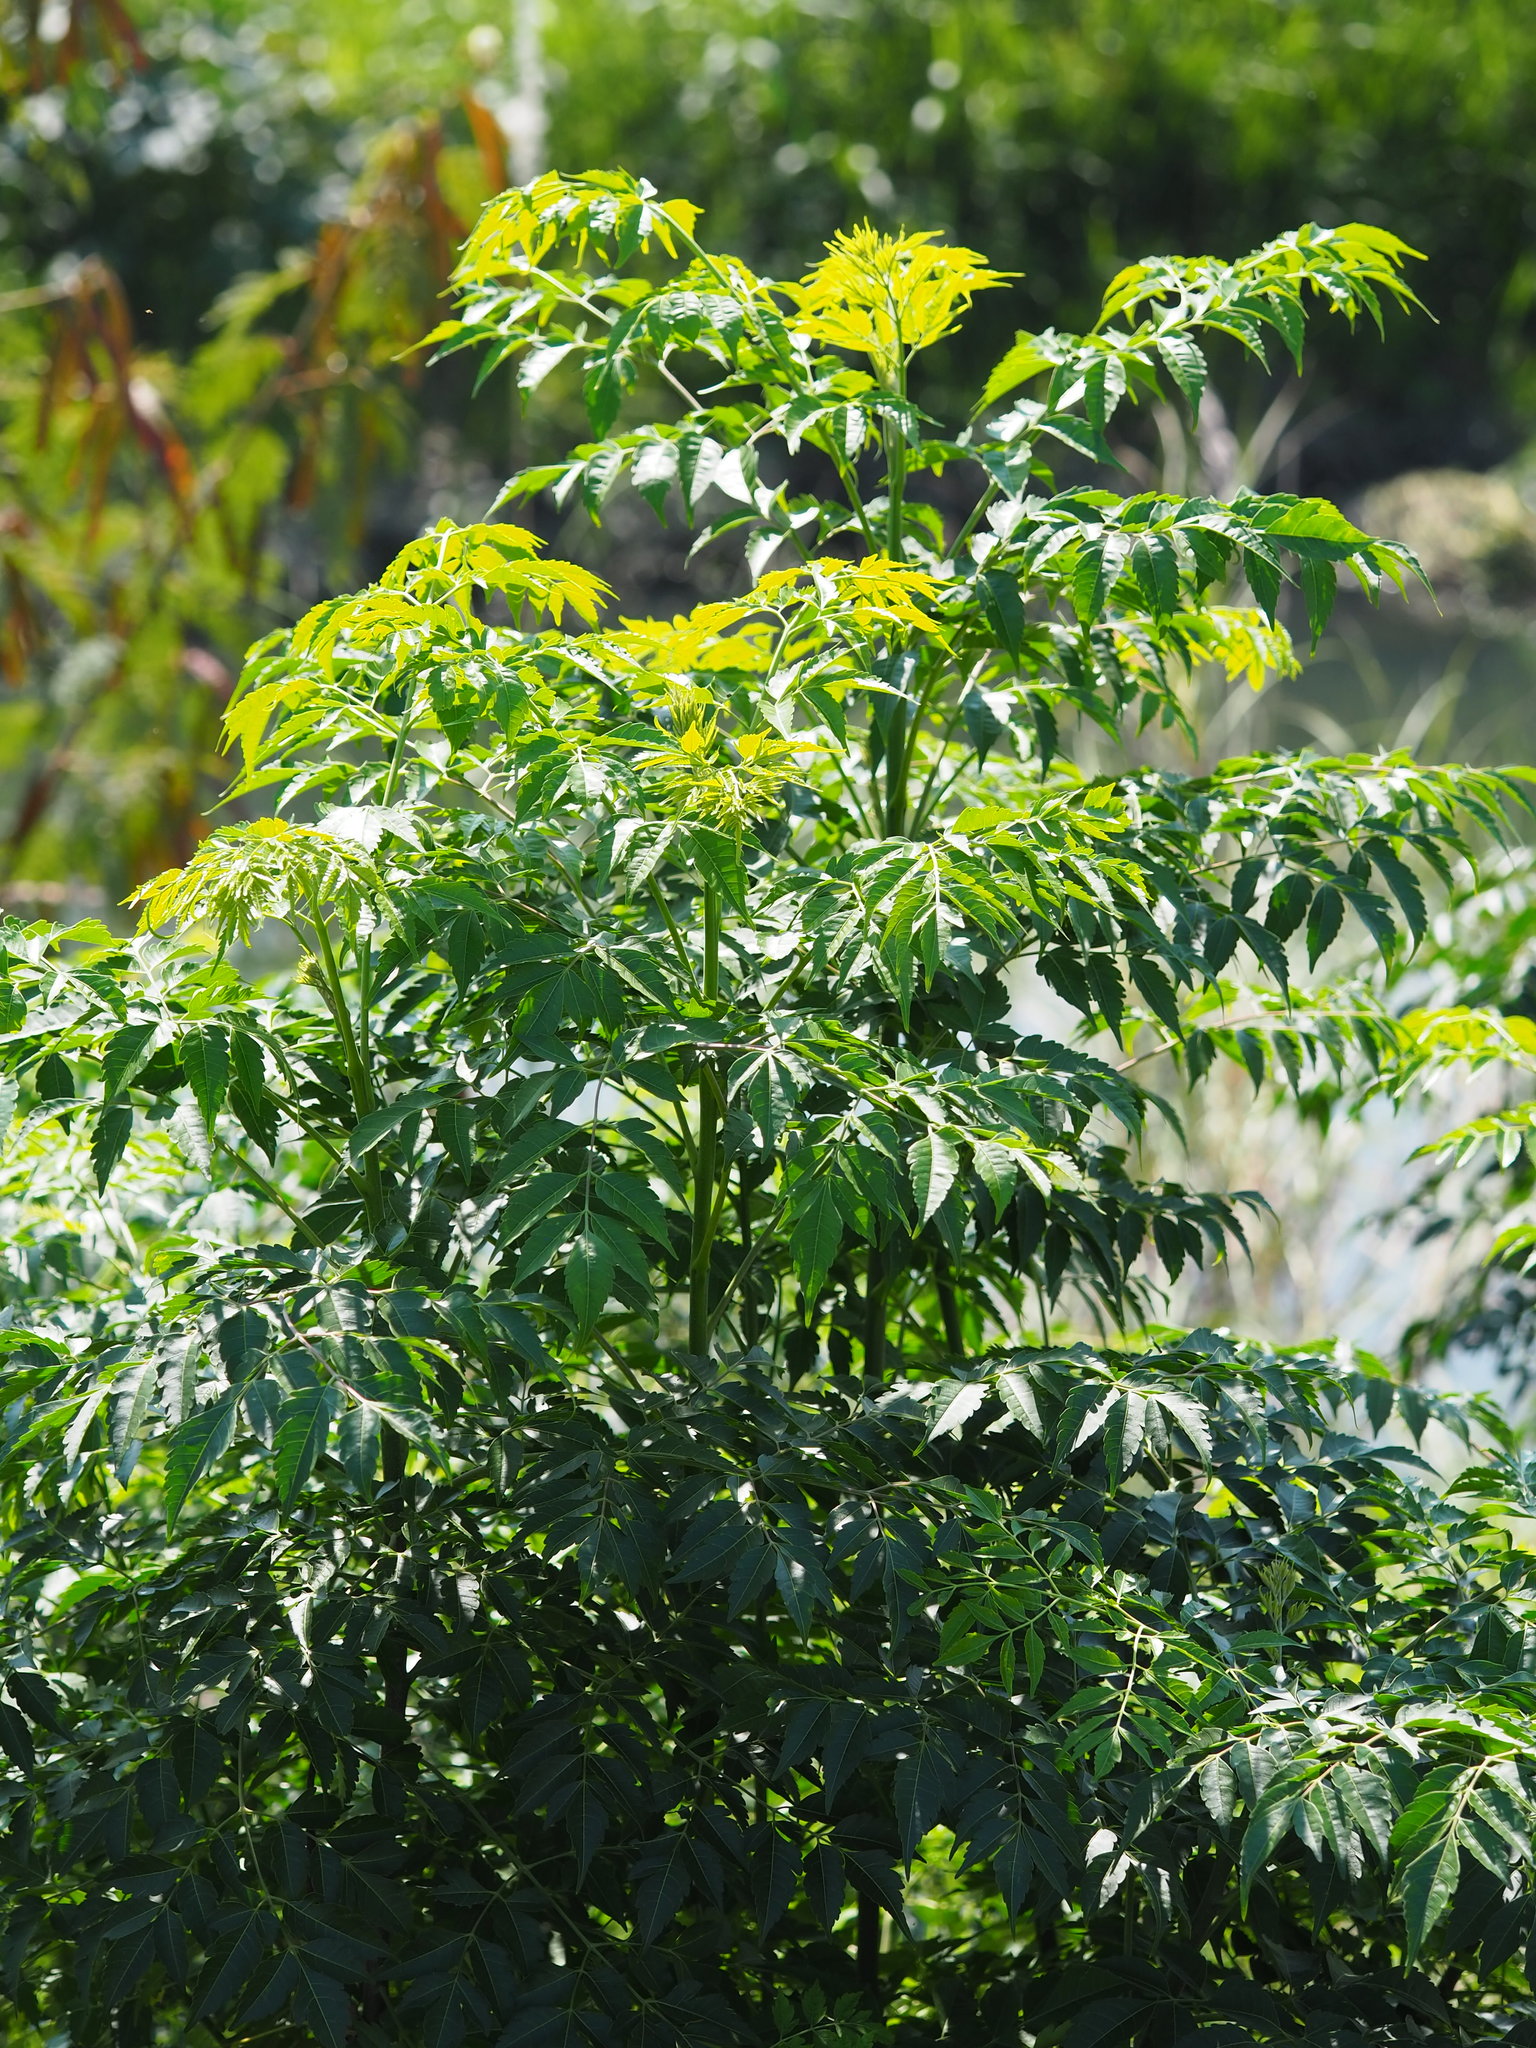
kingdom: Plantae
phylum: Tracheophyta
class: Magnoliopsida
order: Sapindales
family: Meliaceae
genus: Melia
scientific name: Melia azedarach
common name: Chinaberrytree
